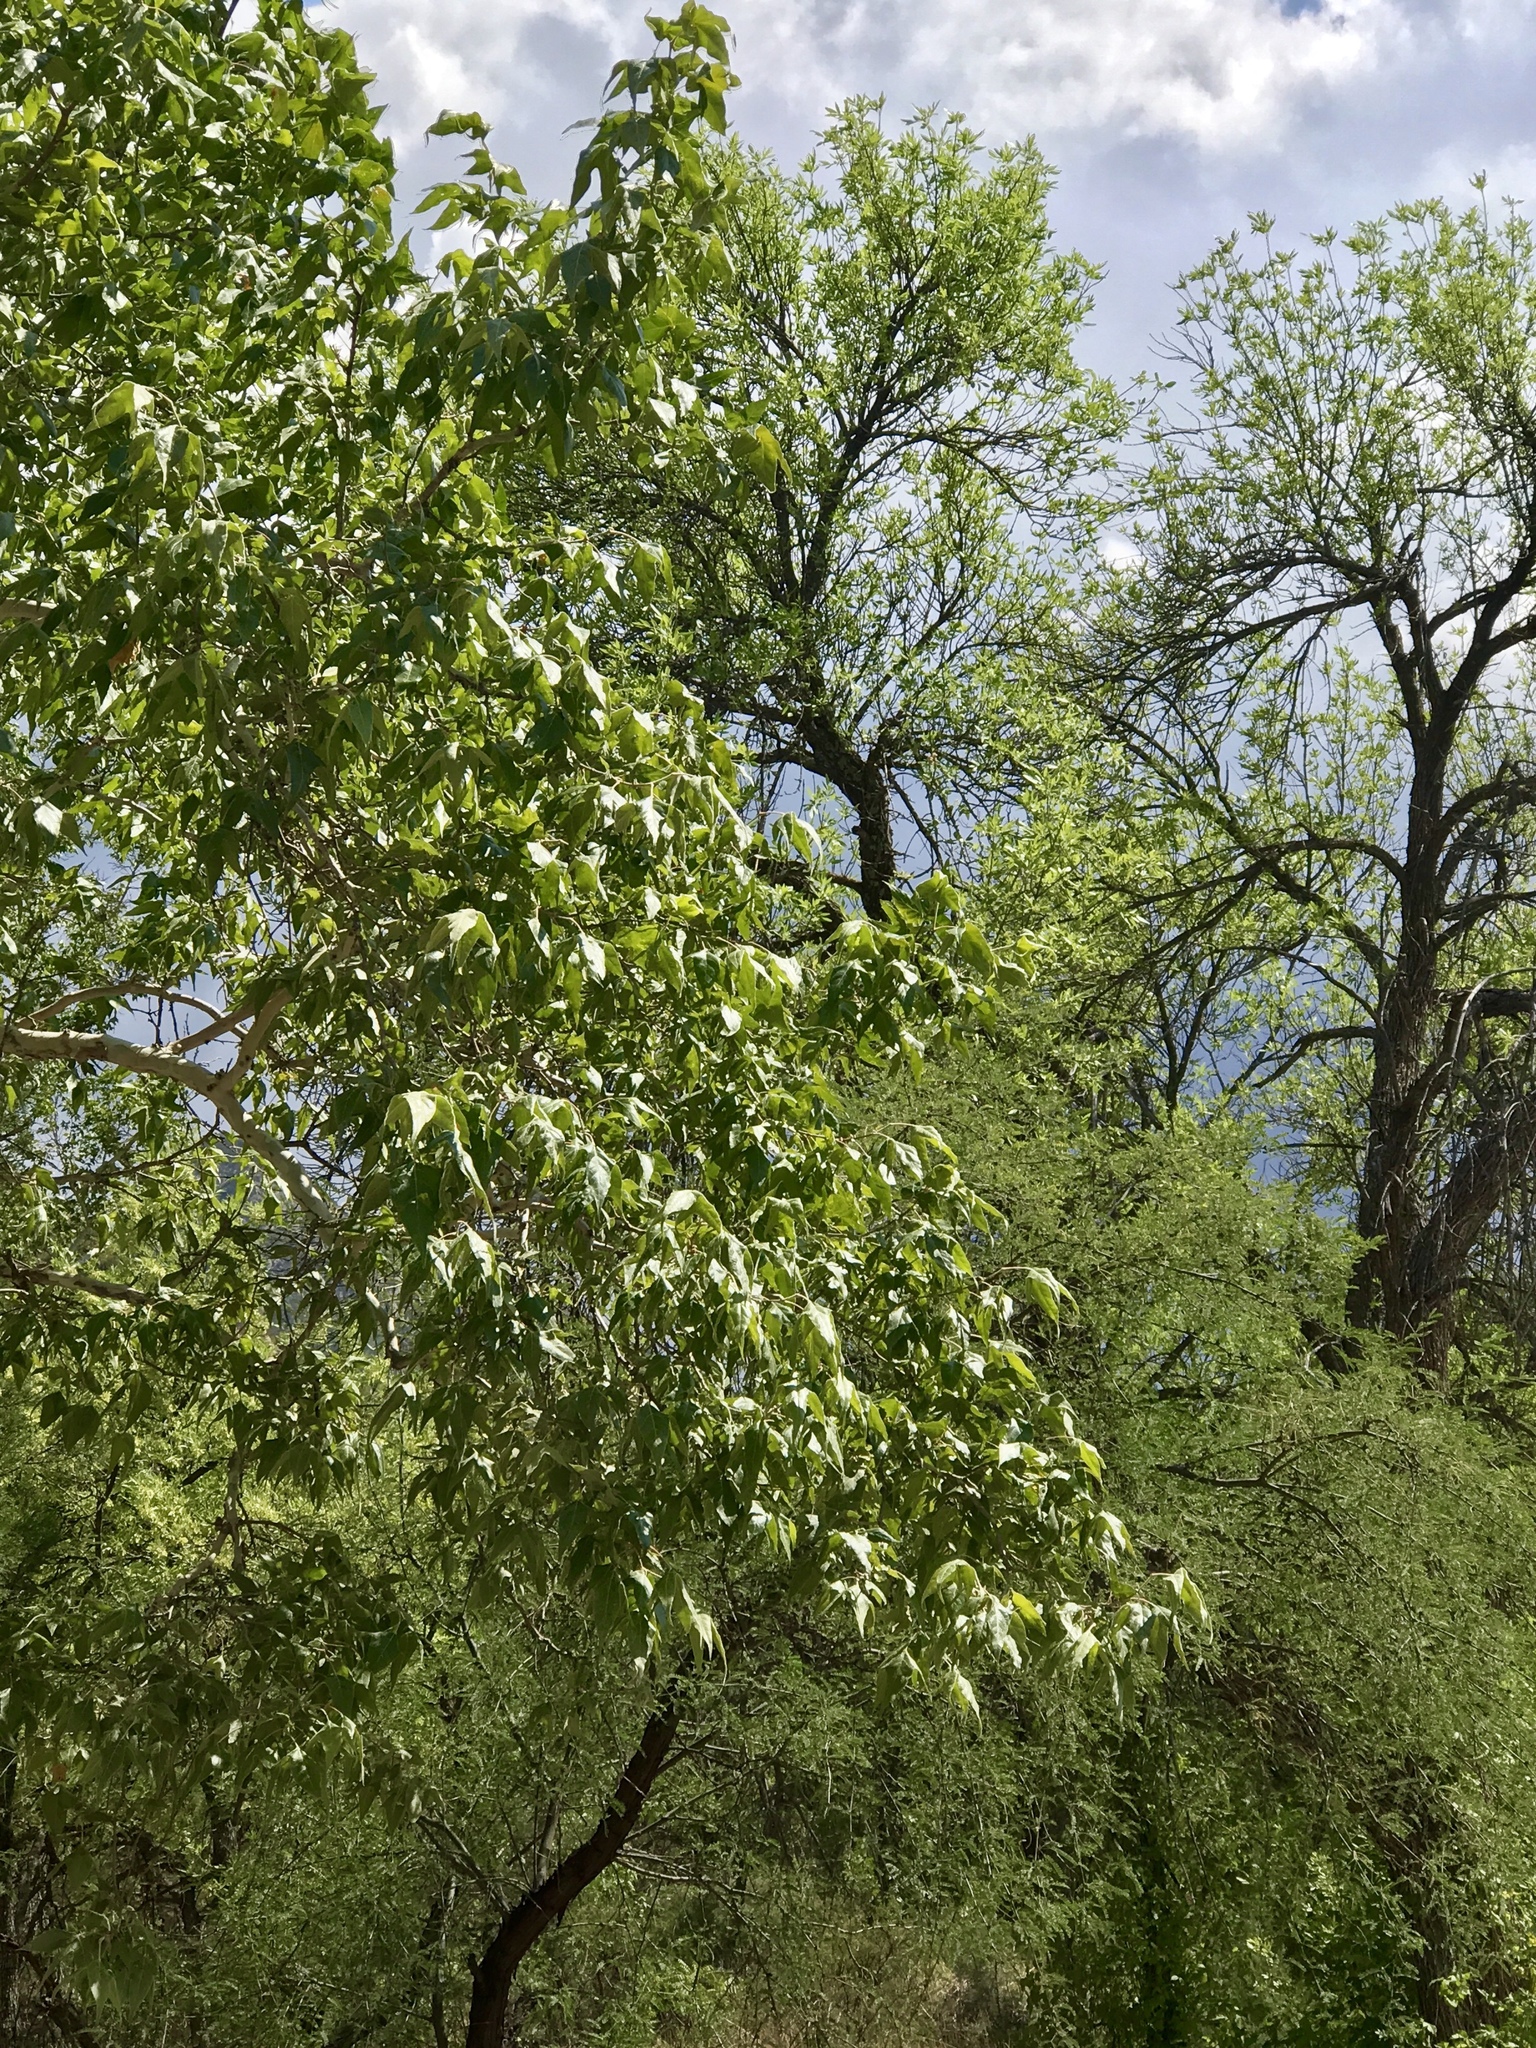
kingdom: Plantae
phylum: Tracheophyta
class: Magnoliopsida
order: Proteales
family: Platanaceae
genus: Platanus
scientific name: Platanus wrightii
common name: Arizona sycamore
